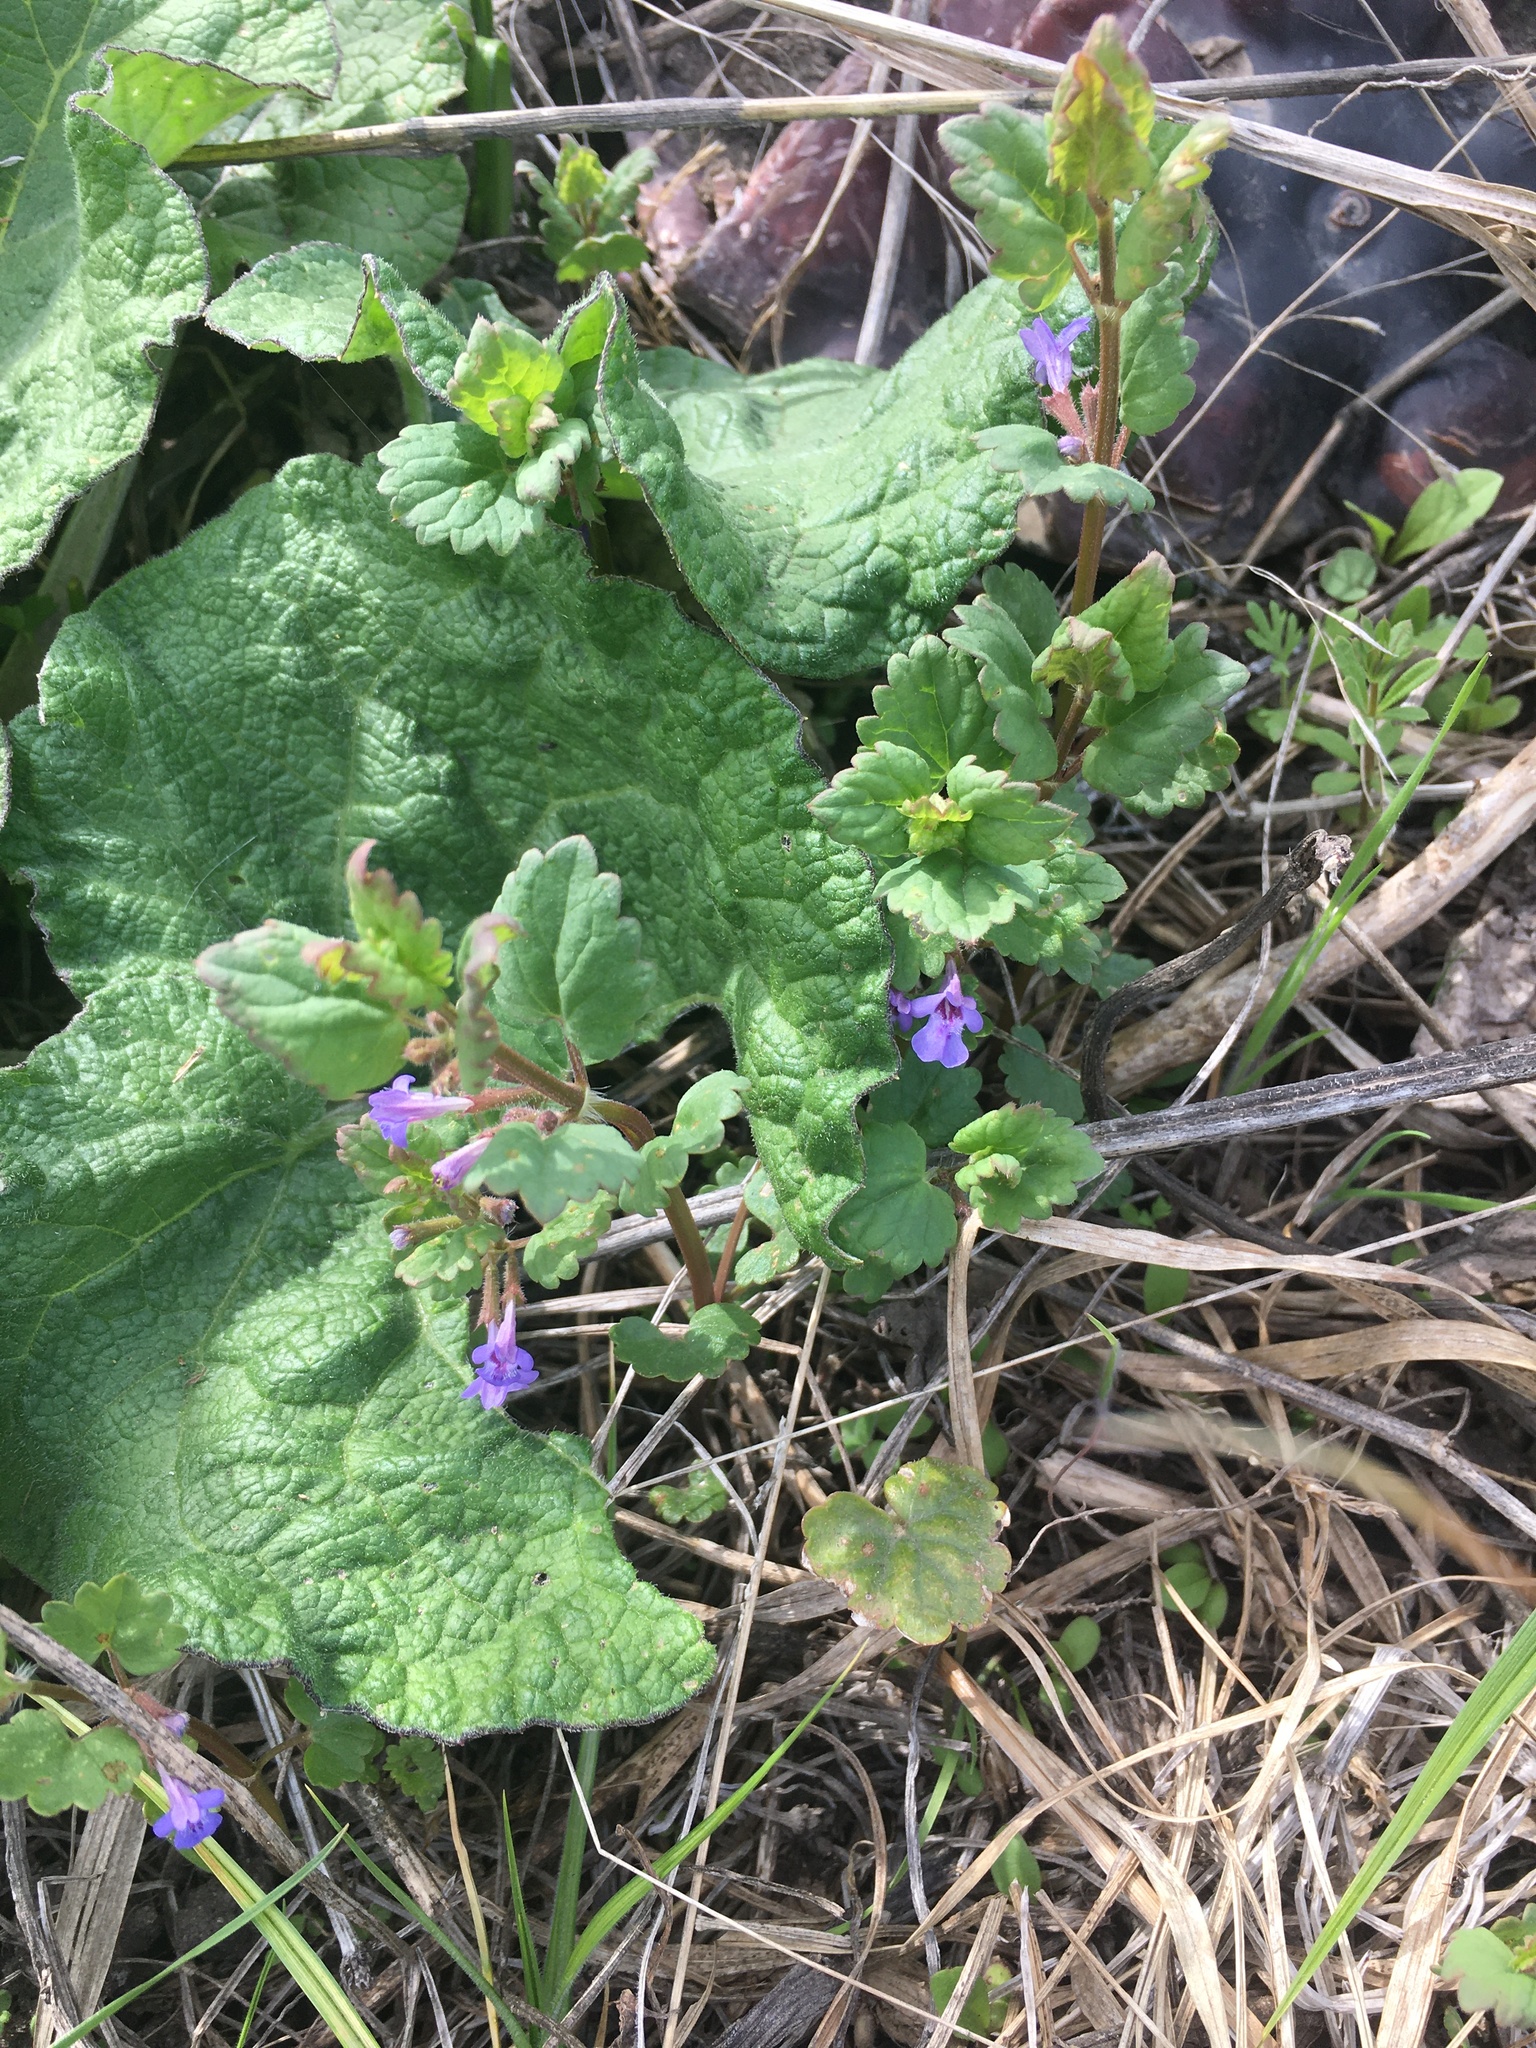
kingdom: Plantae
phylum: Tracheophyta
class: Magnoliopsida
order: Lamiales
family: Lamiaceae
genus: Glechoma
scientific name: Glechoma hederacea
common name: Ground ivy
